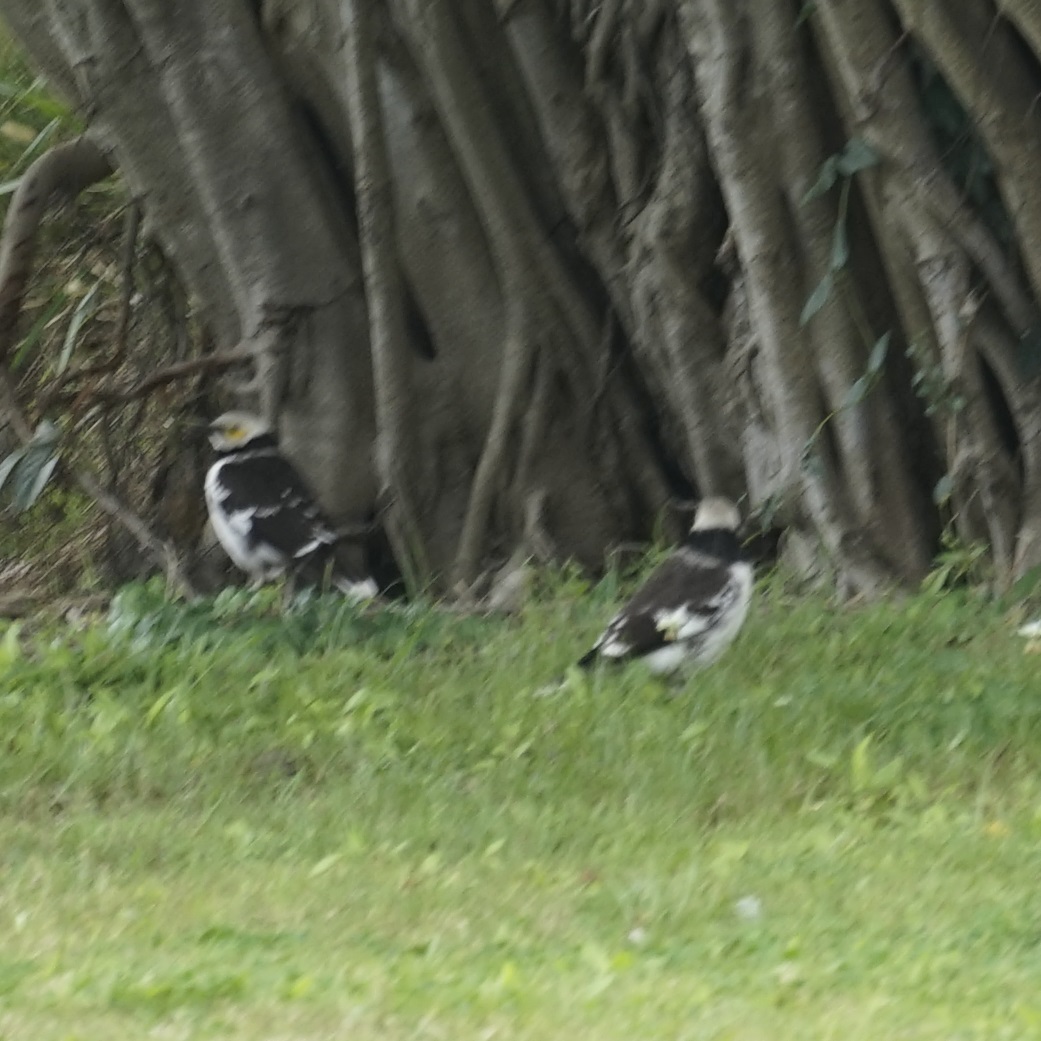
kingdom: Animalia
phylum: Chordata
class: Aves
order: Passeriformes
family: Sturnidae
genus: Gracupica
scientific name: Gracupica nigricollis
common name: Black-collared starling
